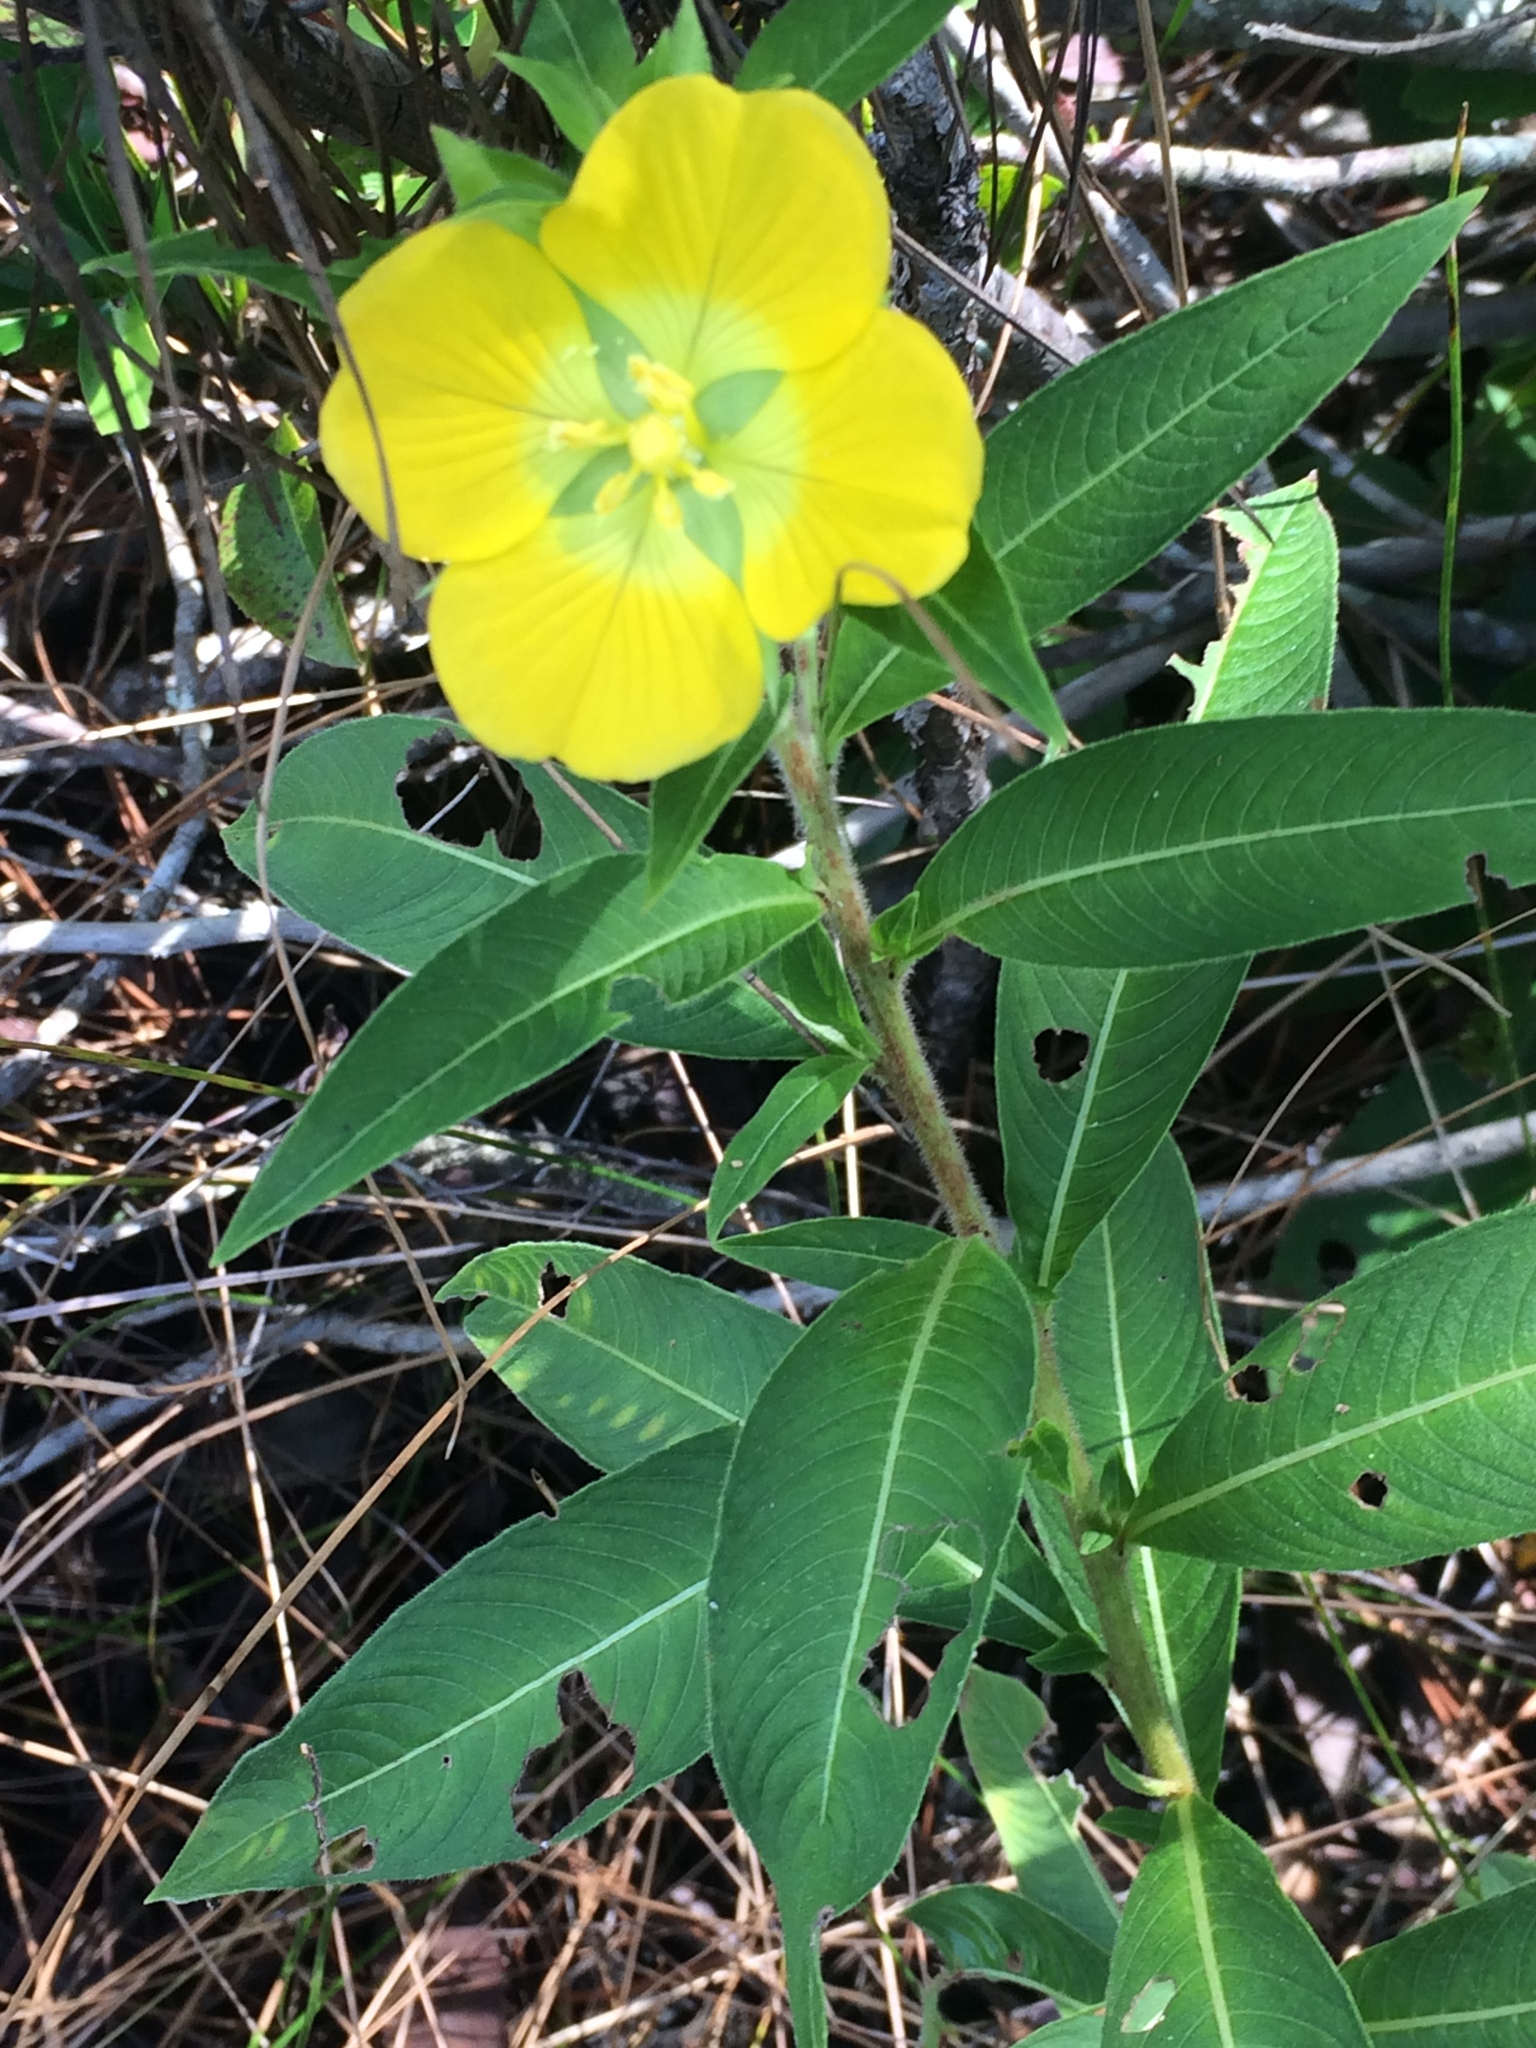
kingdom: Plantae
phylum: Tracheophyta
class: Magnoliopsida
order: Myrtales
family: Onagraceae
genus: Ludwigia
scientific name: Ludwigia peruviana
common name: Peruvian primrose-willow
